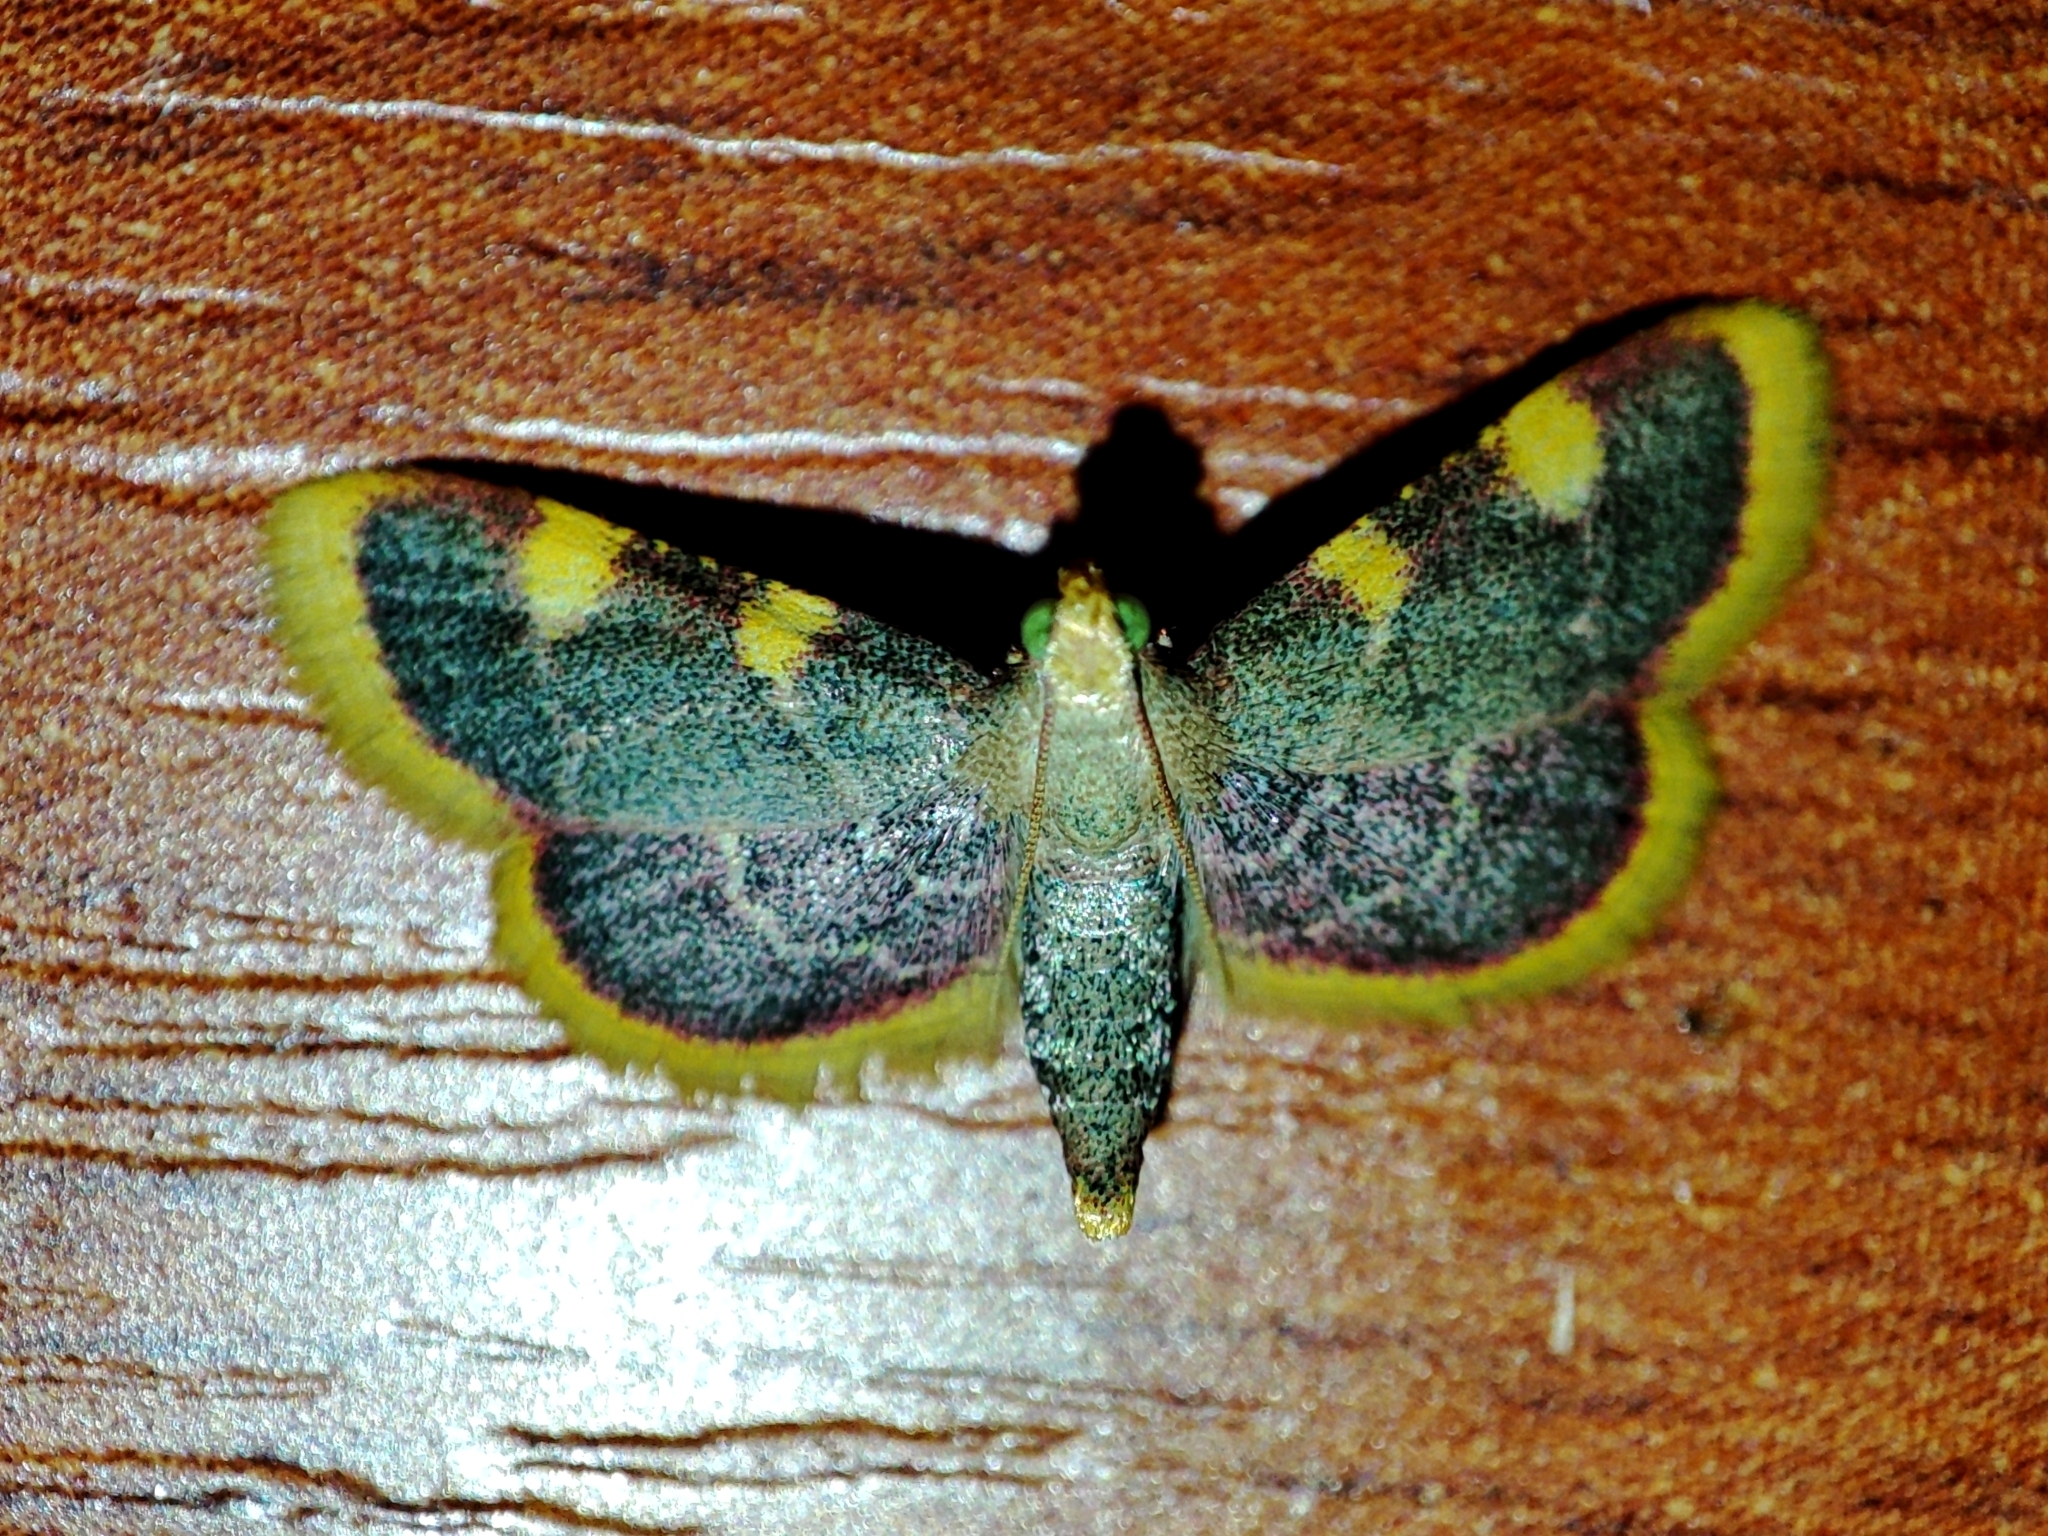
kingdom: Animalia
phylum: Arthropoda
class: Insecta
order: Lepidoptera
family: Pyralidae
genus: Hypsopygia
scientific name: Hypsopygia costalis
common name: Gold triangle
